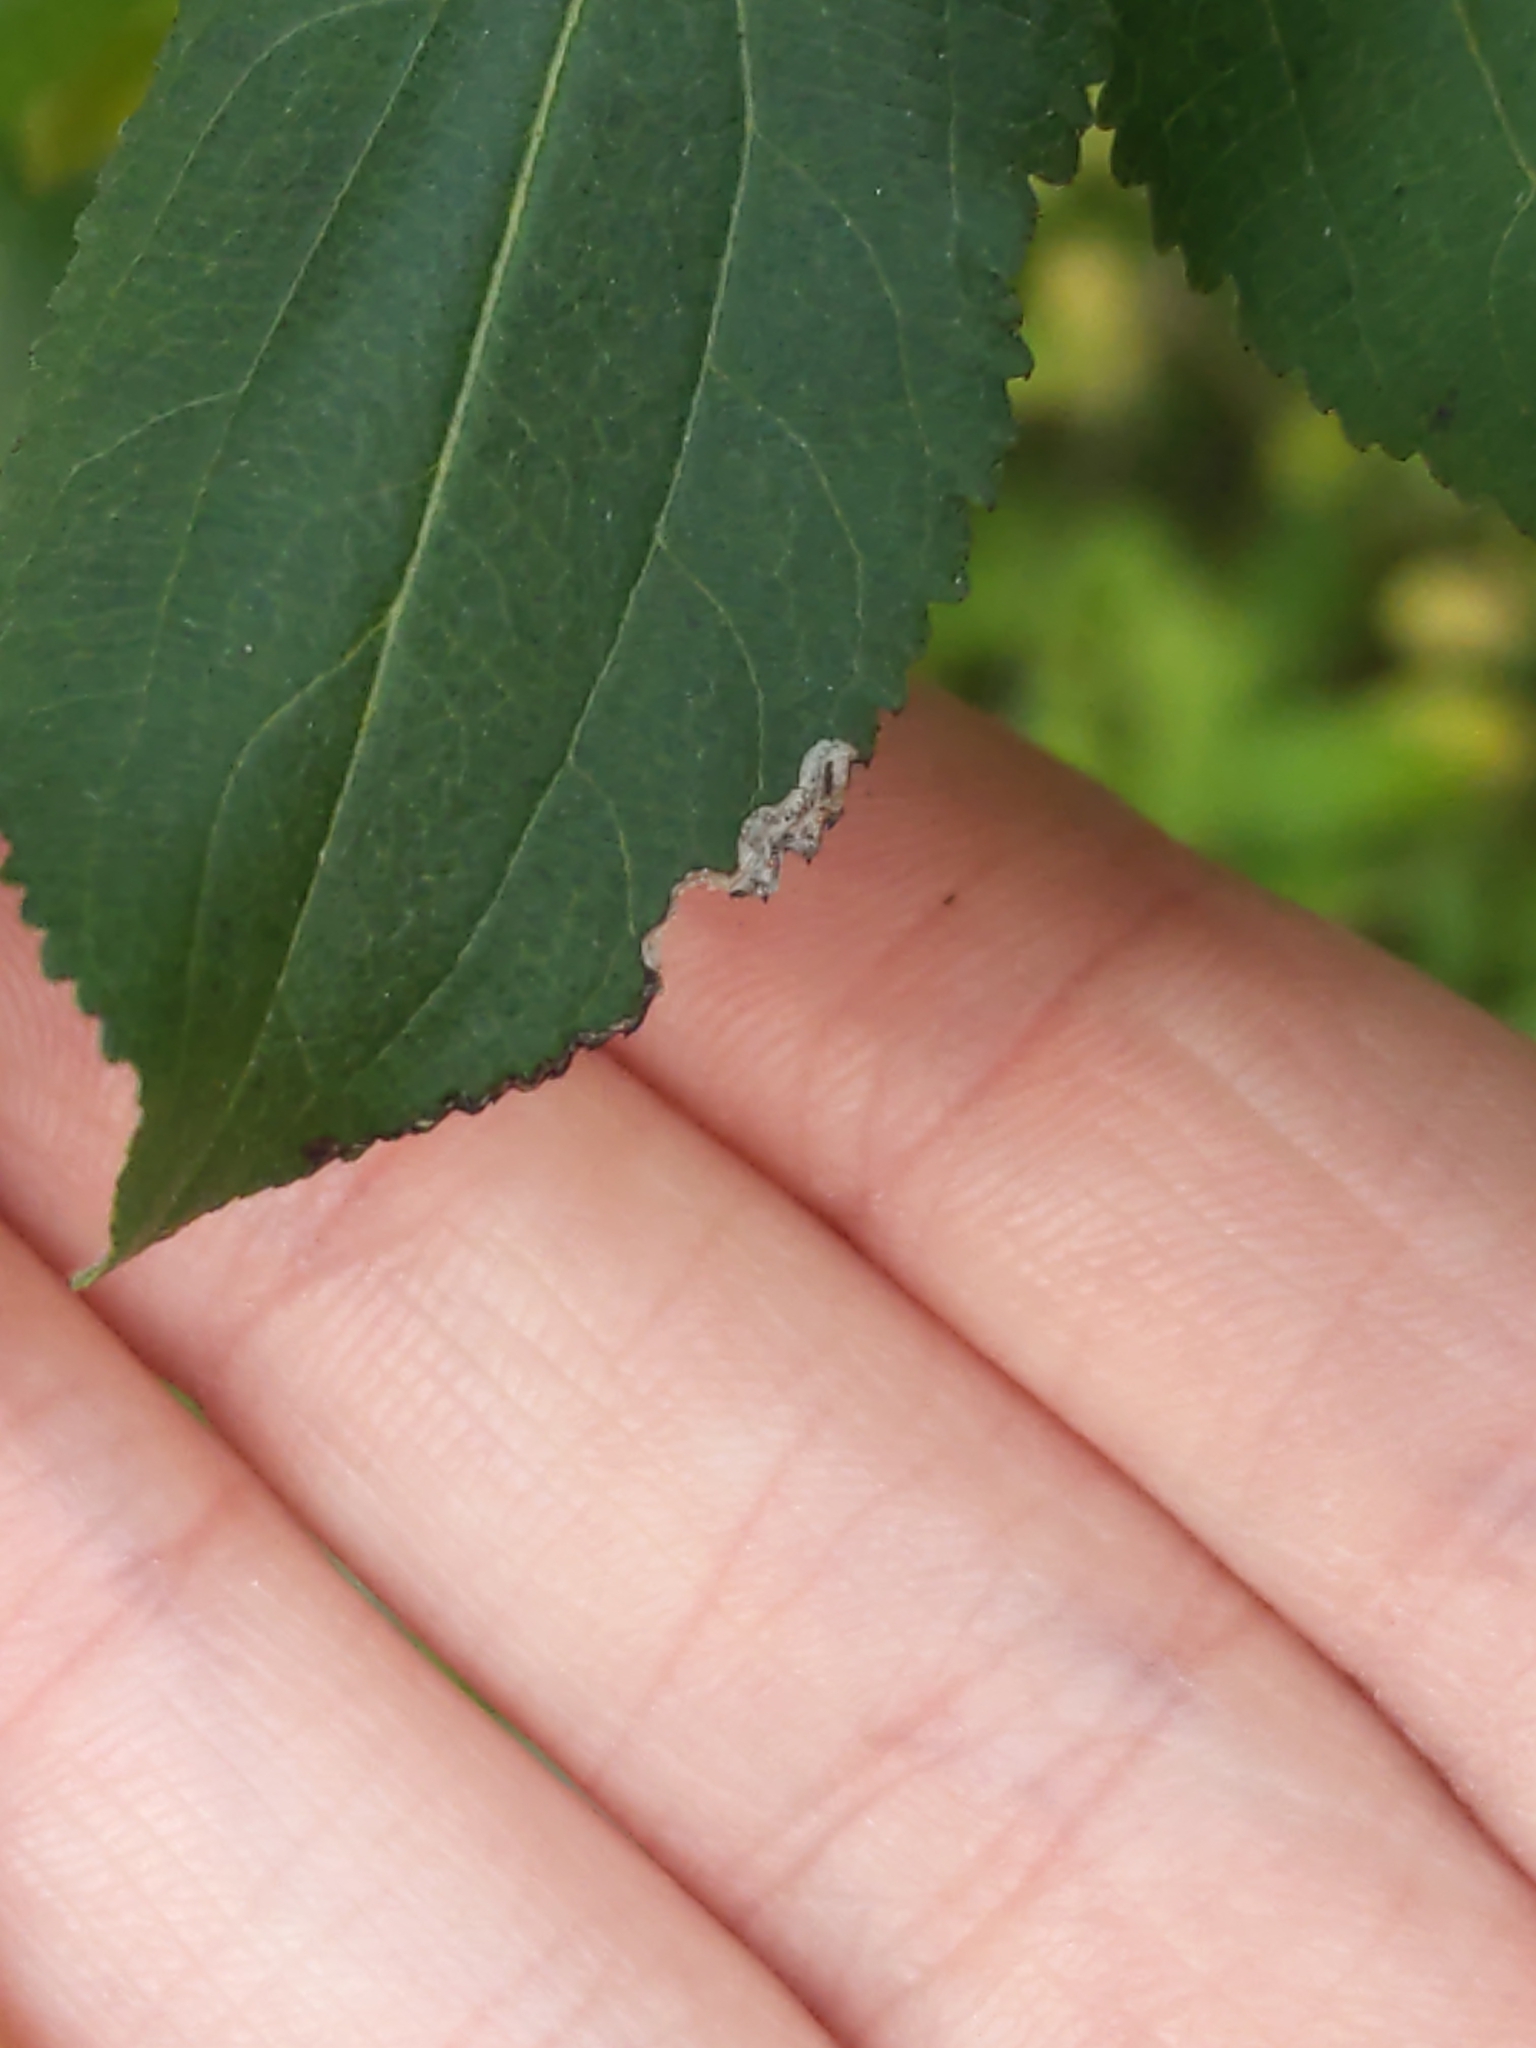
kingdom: Animalia
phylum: Arthropoda
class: Insecta
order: Lepidoptera
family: Nepticulidae
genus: Stigmella
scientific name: Stigmella rhamnicola
